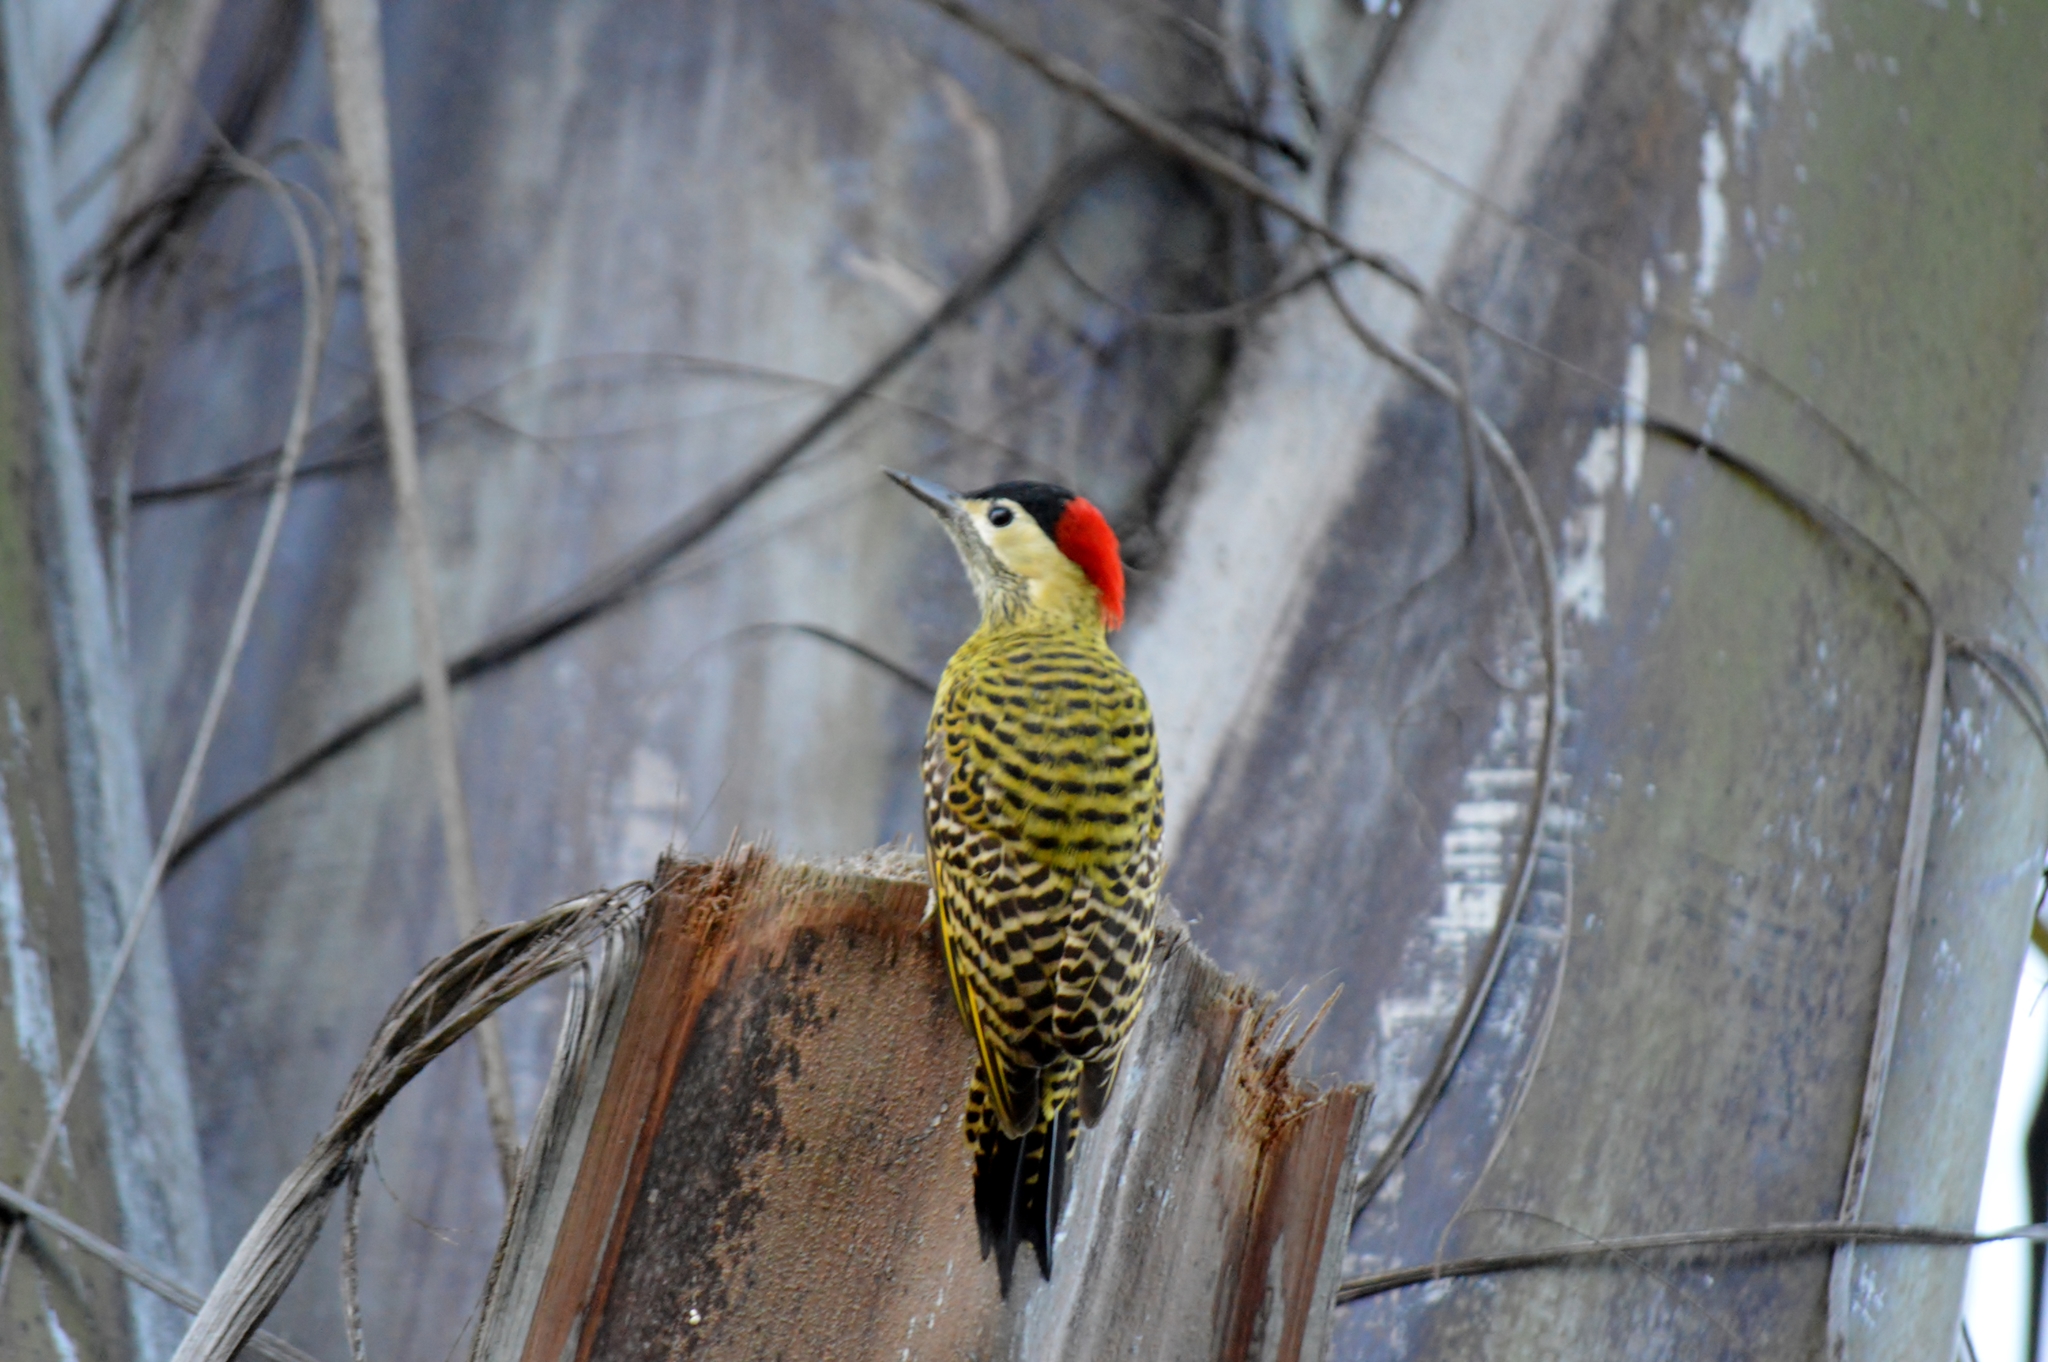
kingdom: Animalia
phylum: Chordata
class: Aves
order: Piciformes
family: Picidae
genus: Colaptes
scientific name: Colaptes melanochloros
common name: Green-barred woodpecker
